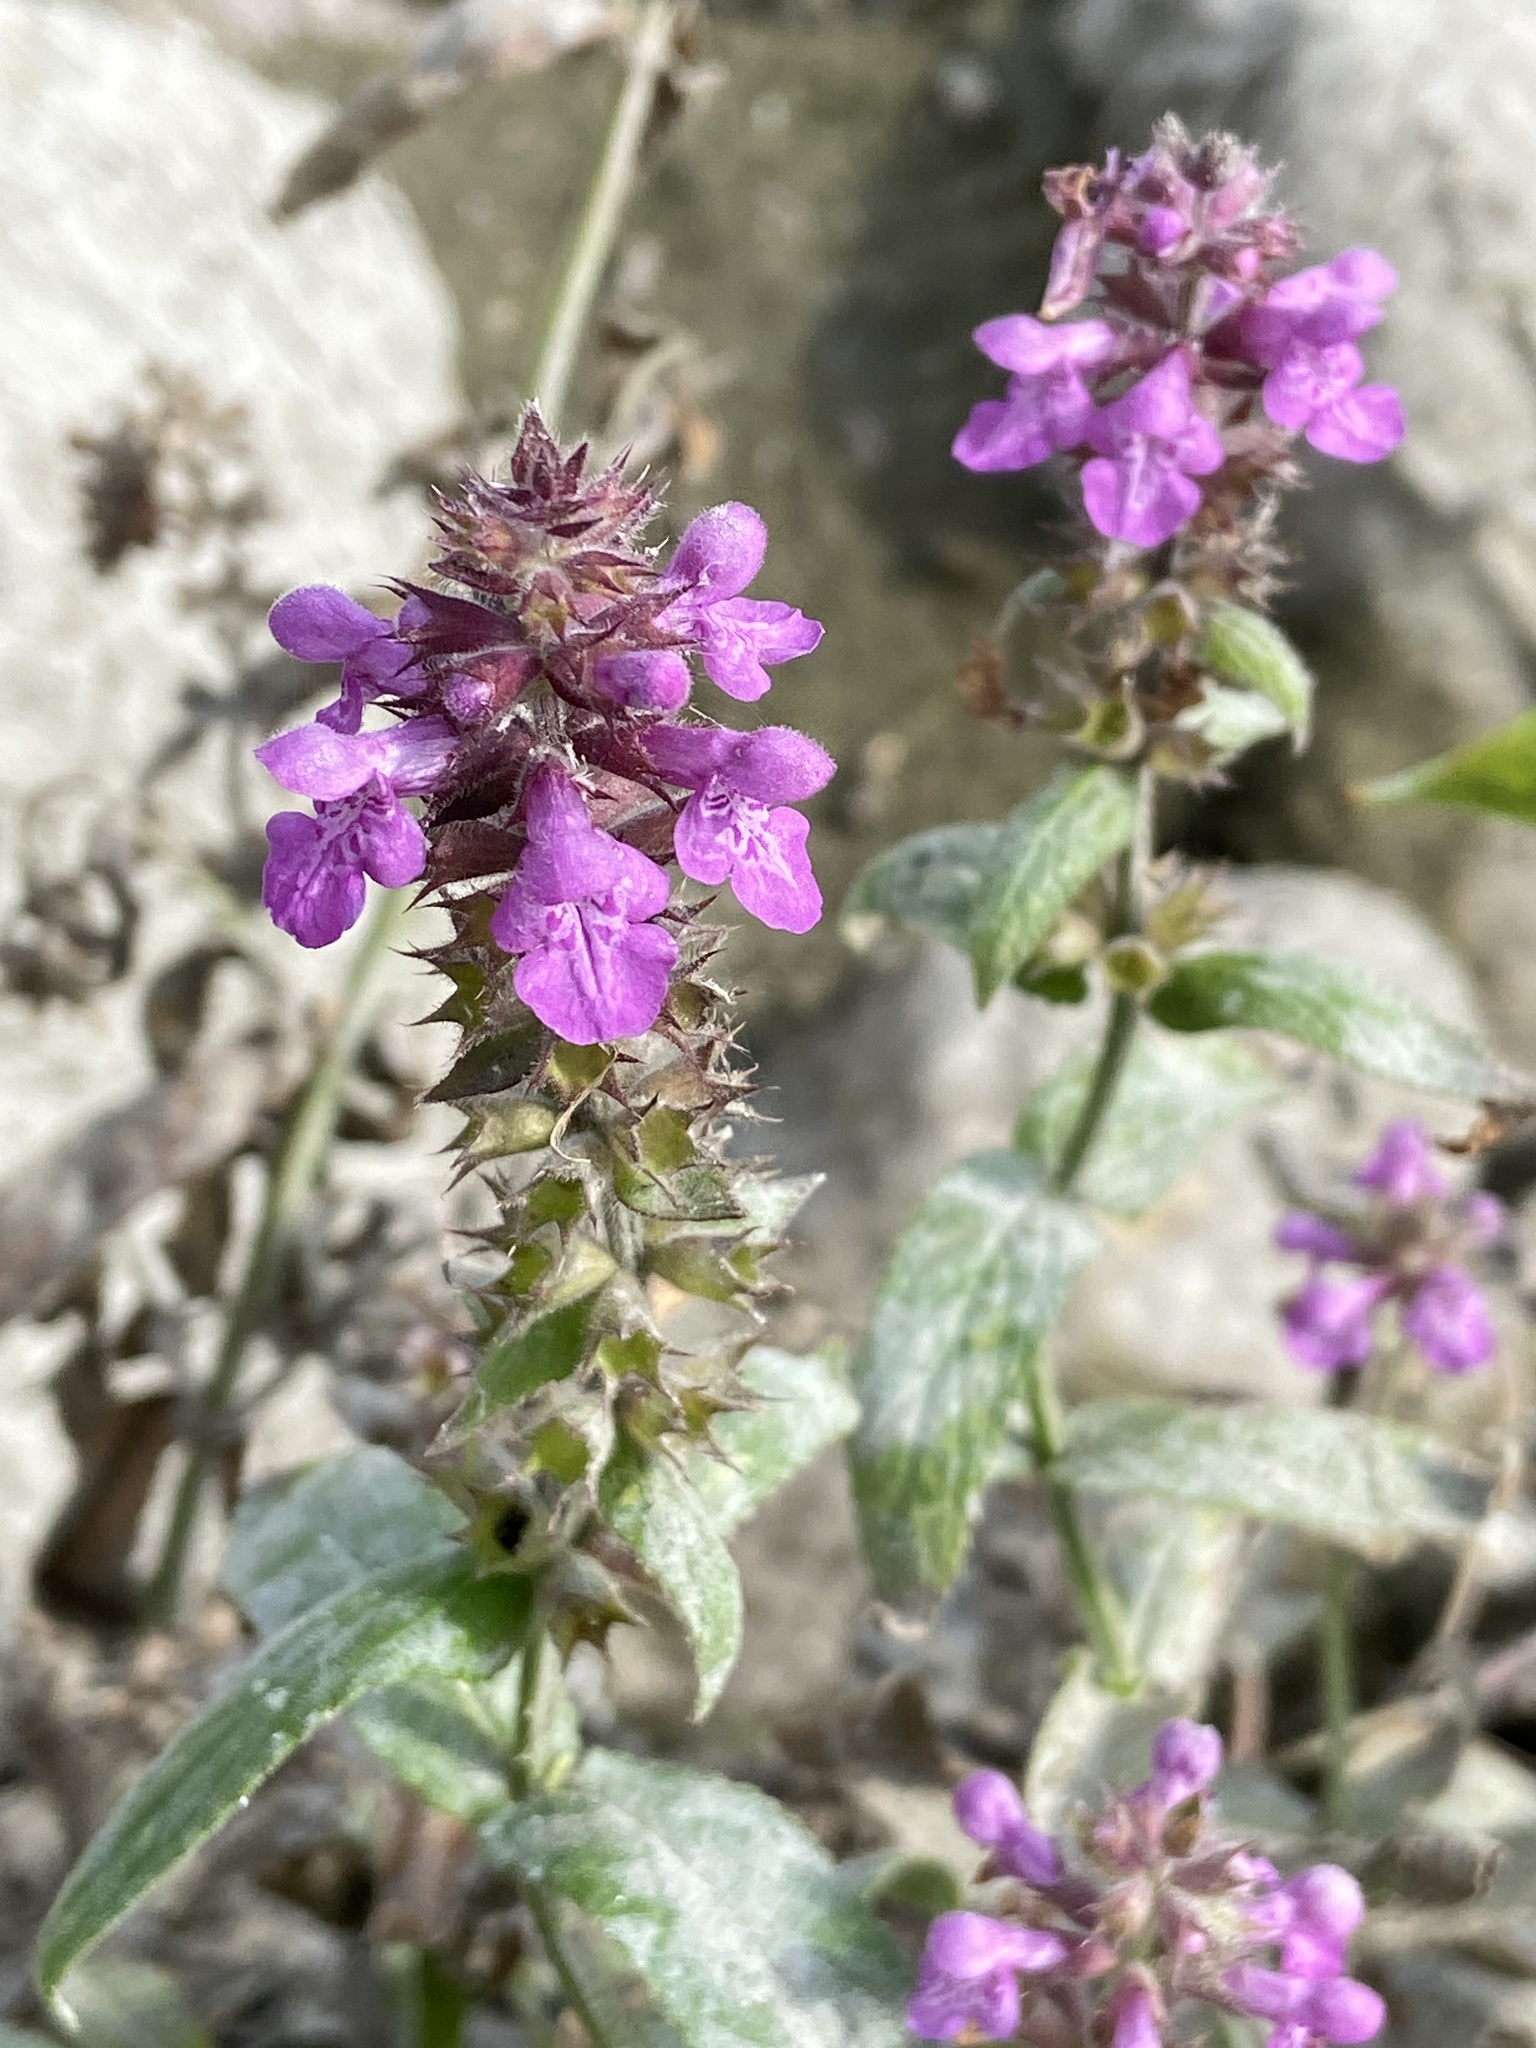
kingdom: Plantae
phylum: Tracheophyta
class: Magnoliopsida
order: Lamiales
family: Lamiaceae
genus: Stachys
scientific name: Stachys palustris
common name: Marsh woundwort
